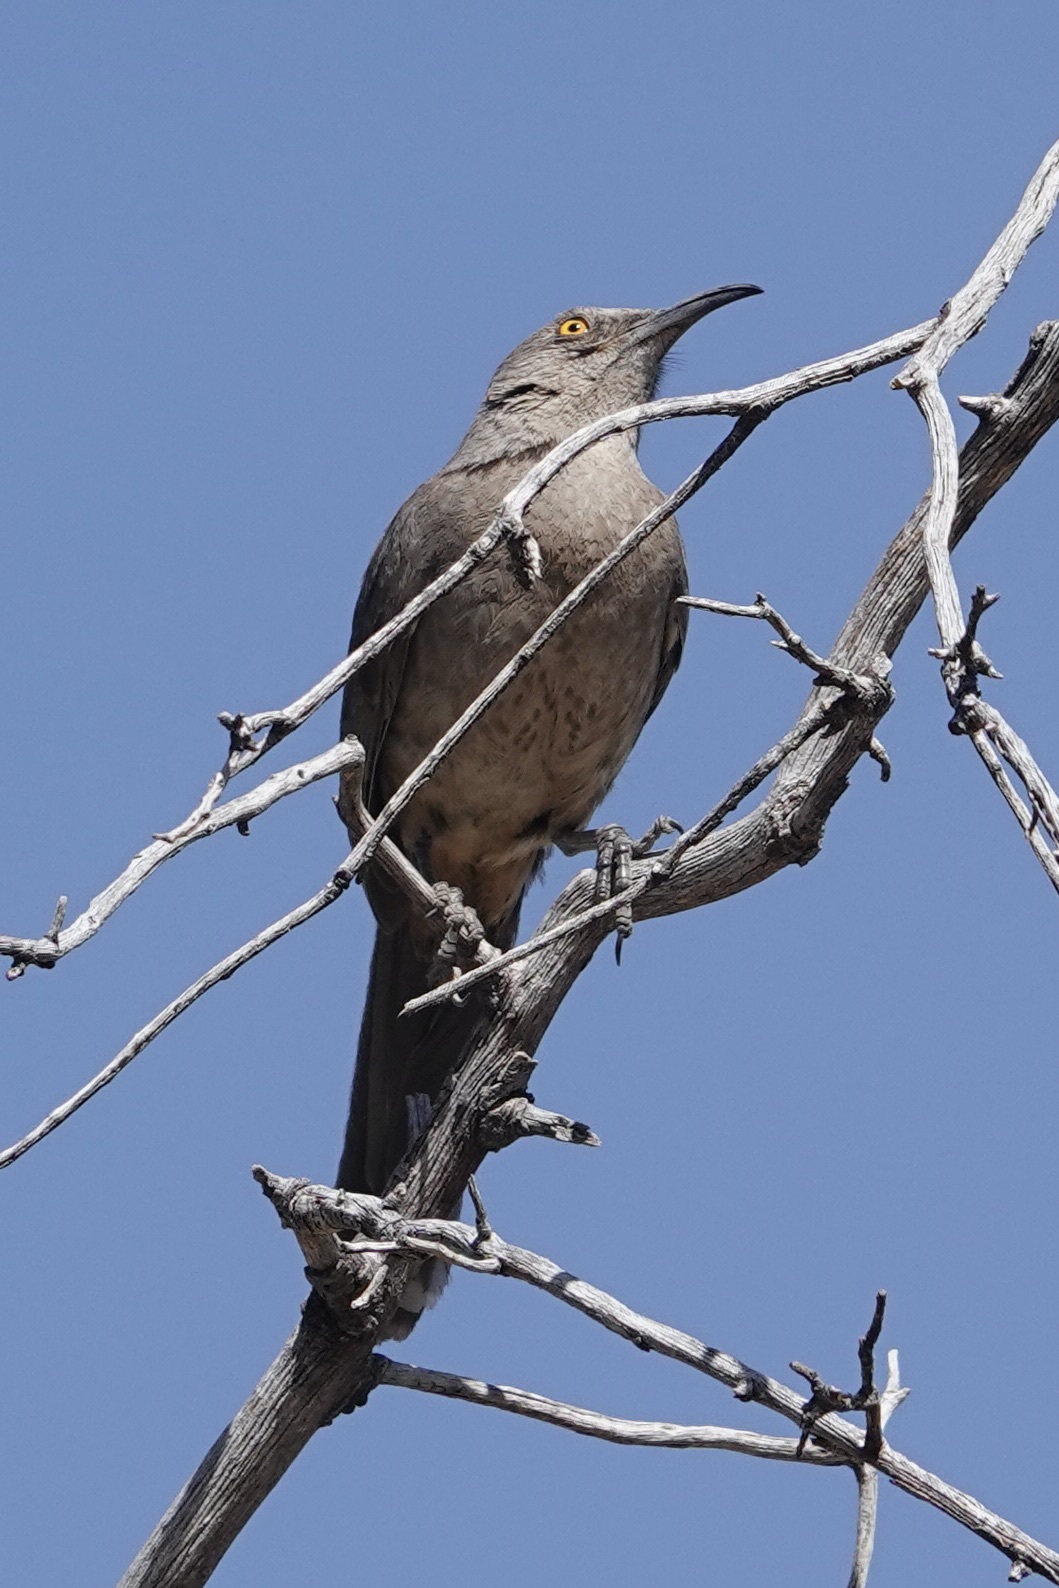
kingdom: Animalia
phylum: Chordata
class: Aves
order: Passeriformes
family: Mimidae
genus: Toxostoma
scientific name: Toxostoma curvirostre
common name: Curve-billed thrasher
